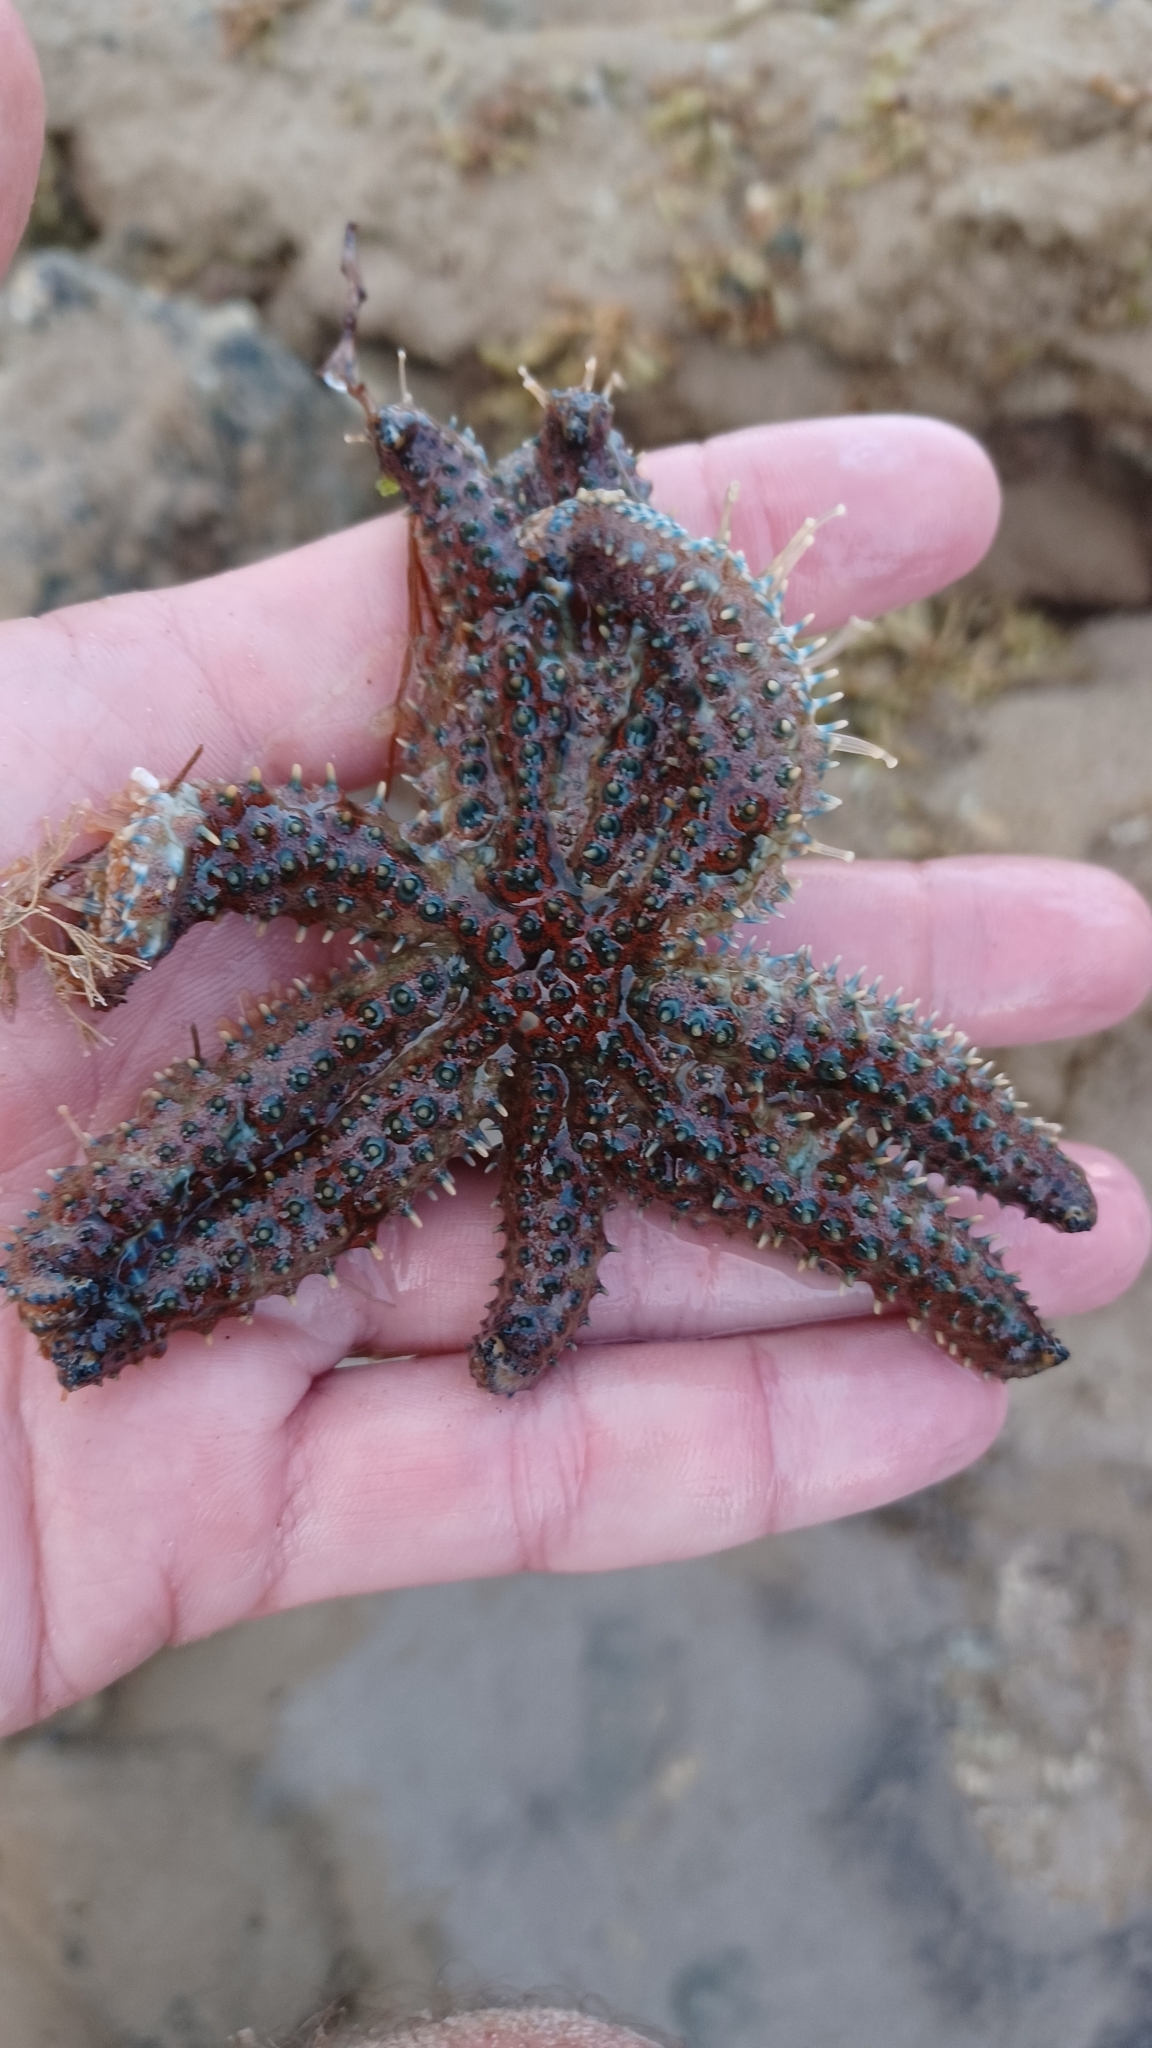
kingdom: Animalia
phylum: Echinodermata
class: Asteroidea
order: Forcipulatida
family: Asteriidae
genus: Coscinasterias
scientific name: Coscinasterias muricata
